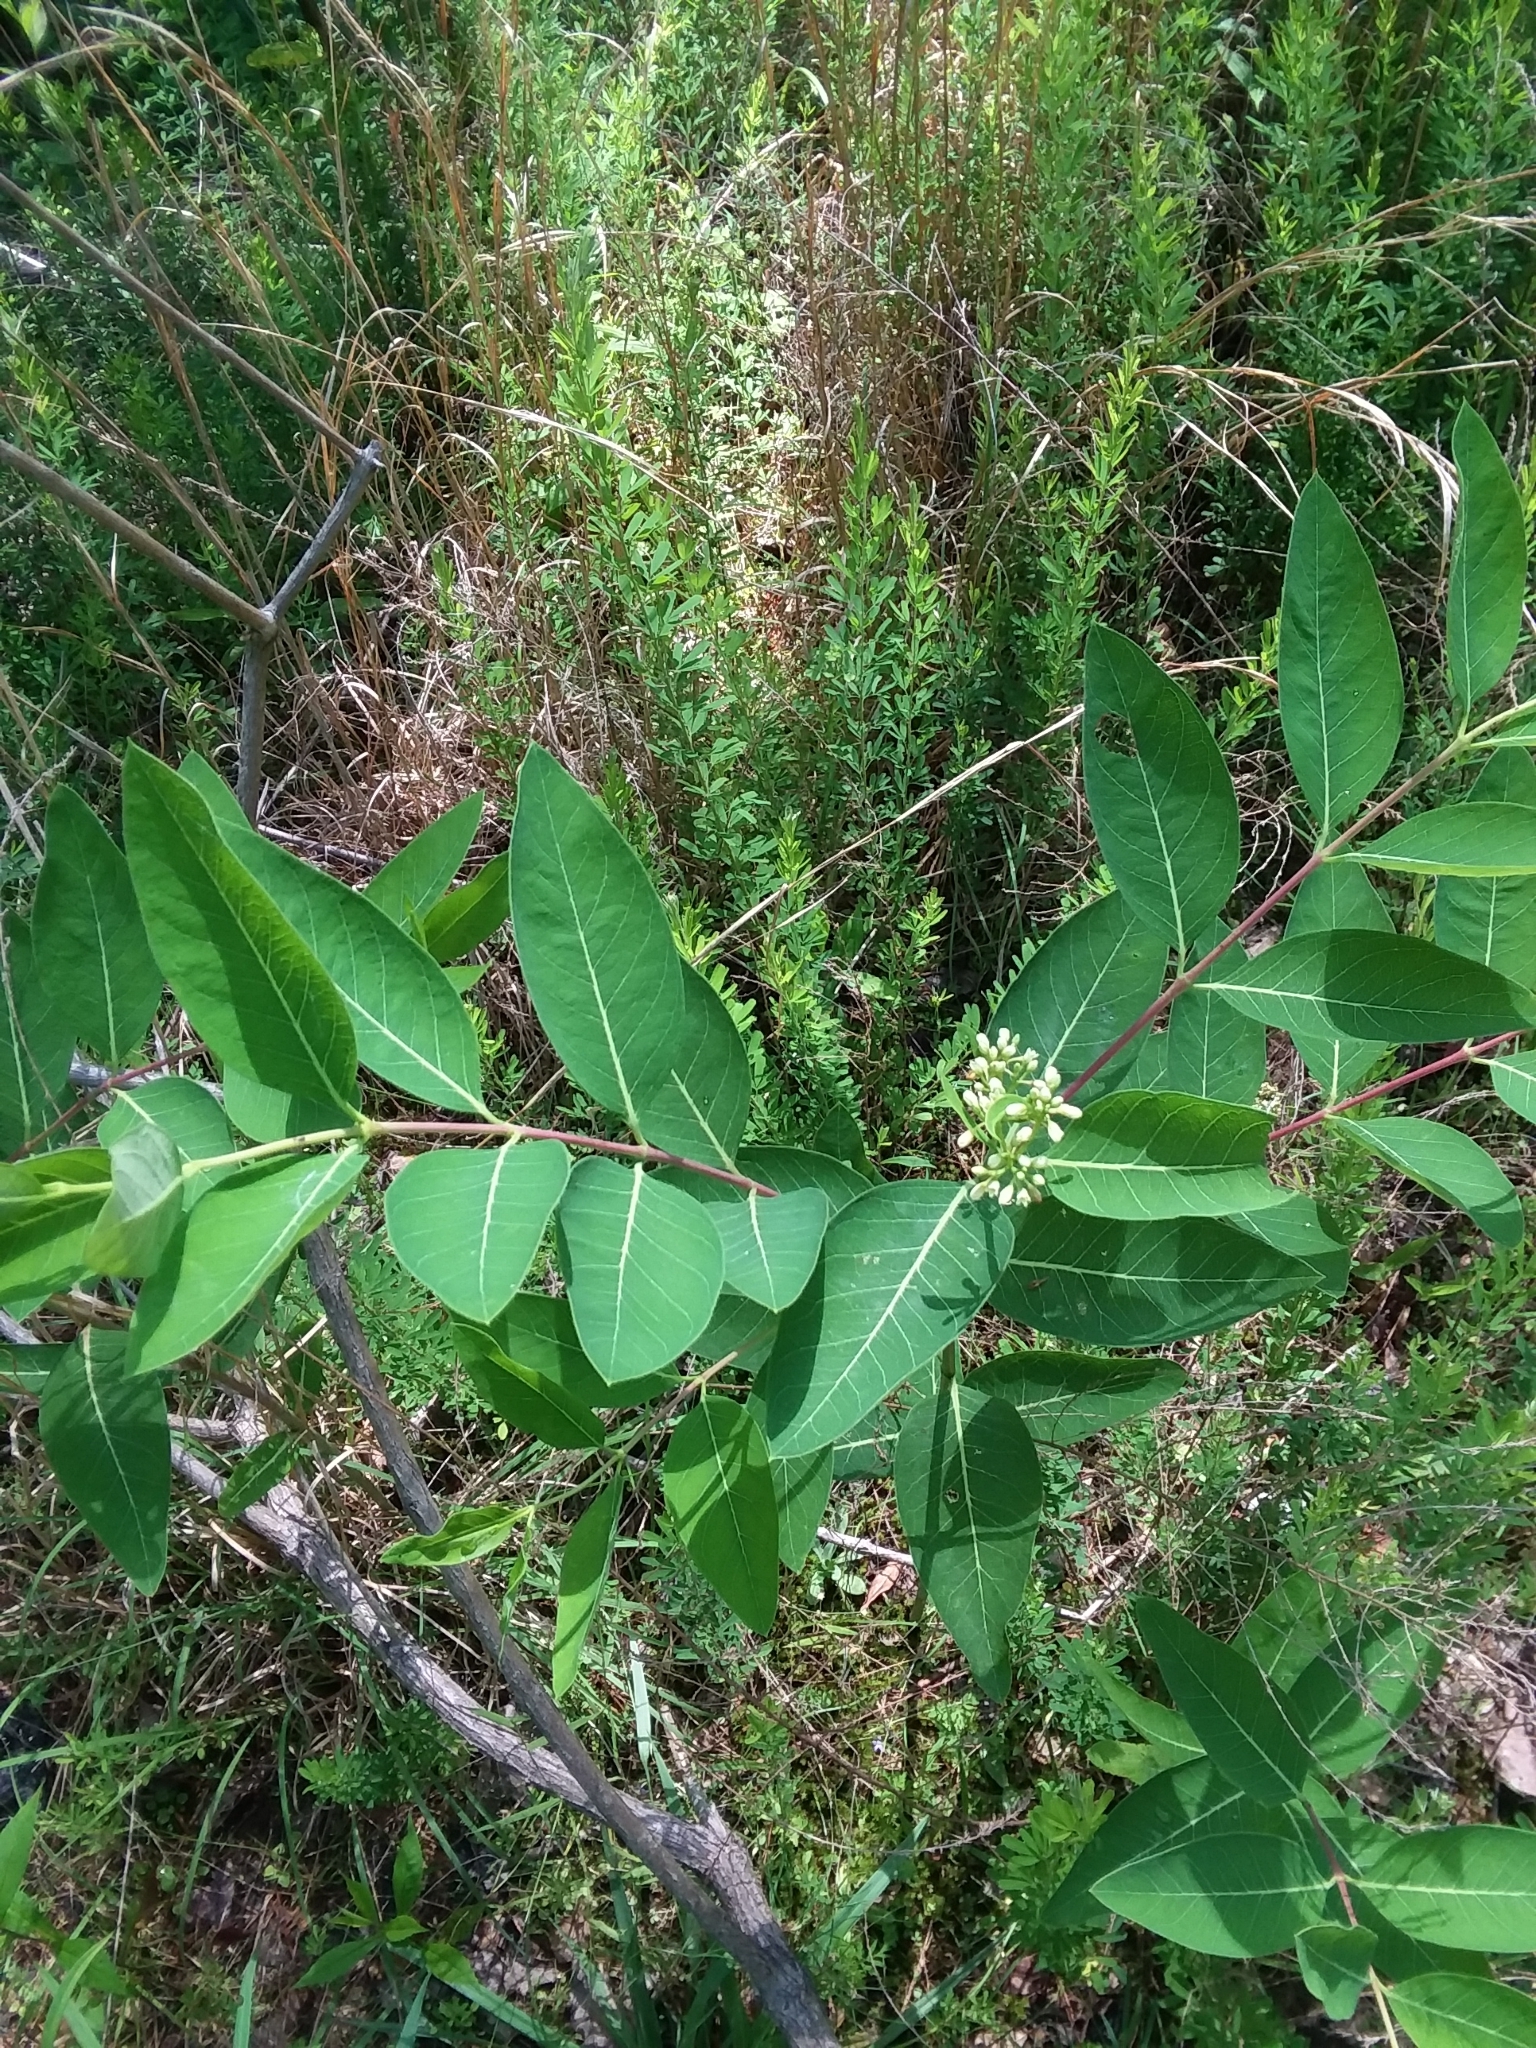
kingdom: Plantae
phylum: Tracheophyta
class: Magnoliopsida
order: Gentianales
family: Apocynaceae
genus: Apocynum
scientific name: Apocynum cannabinum
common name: Hemp dogbane
